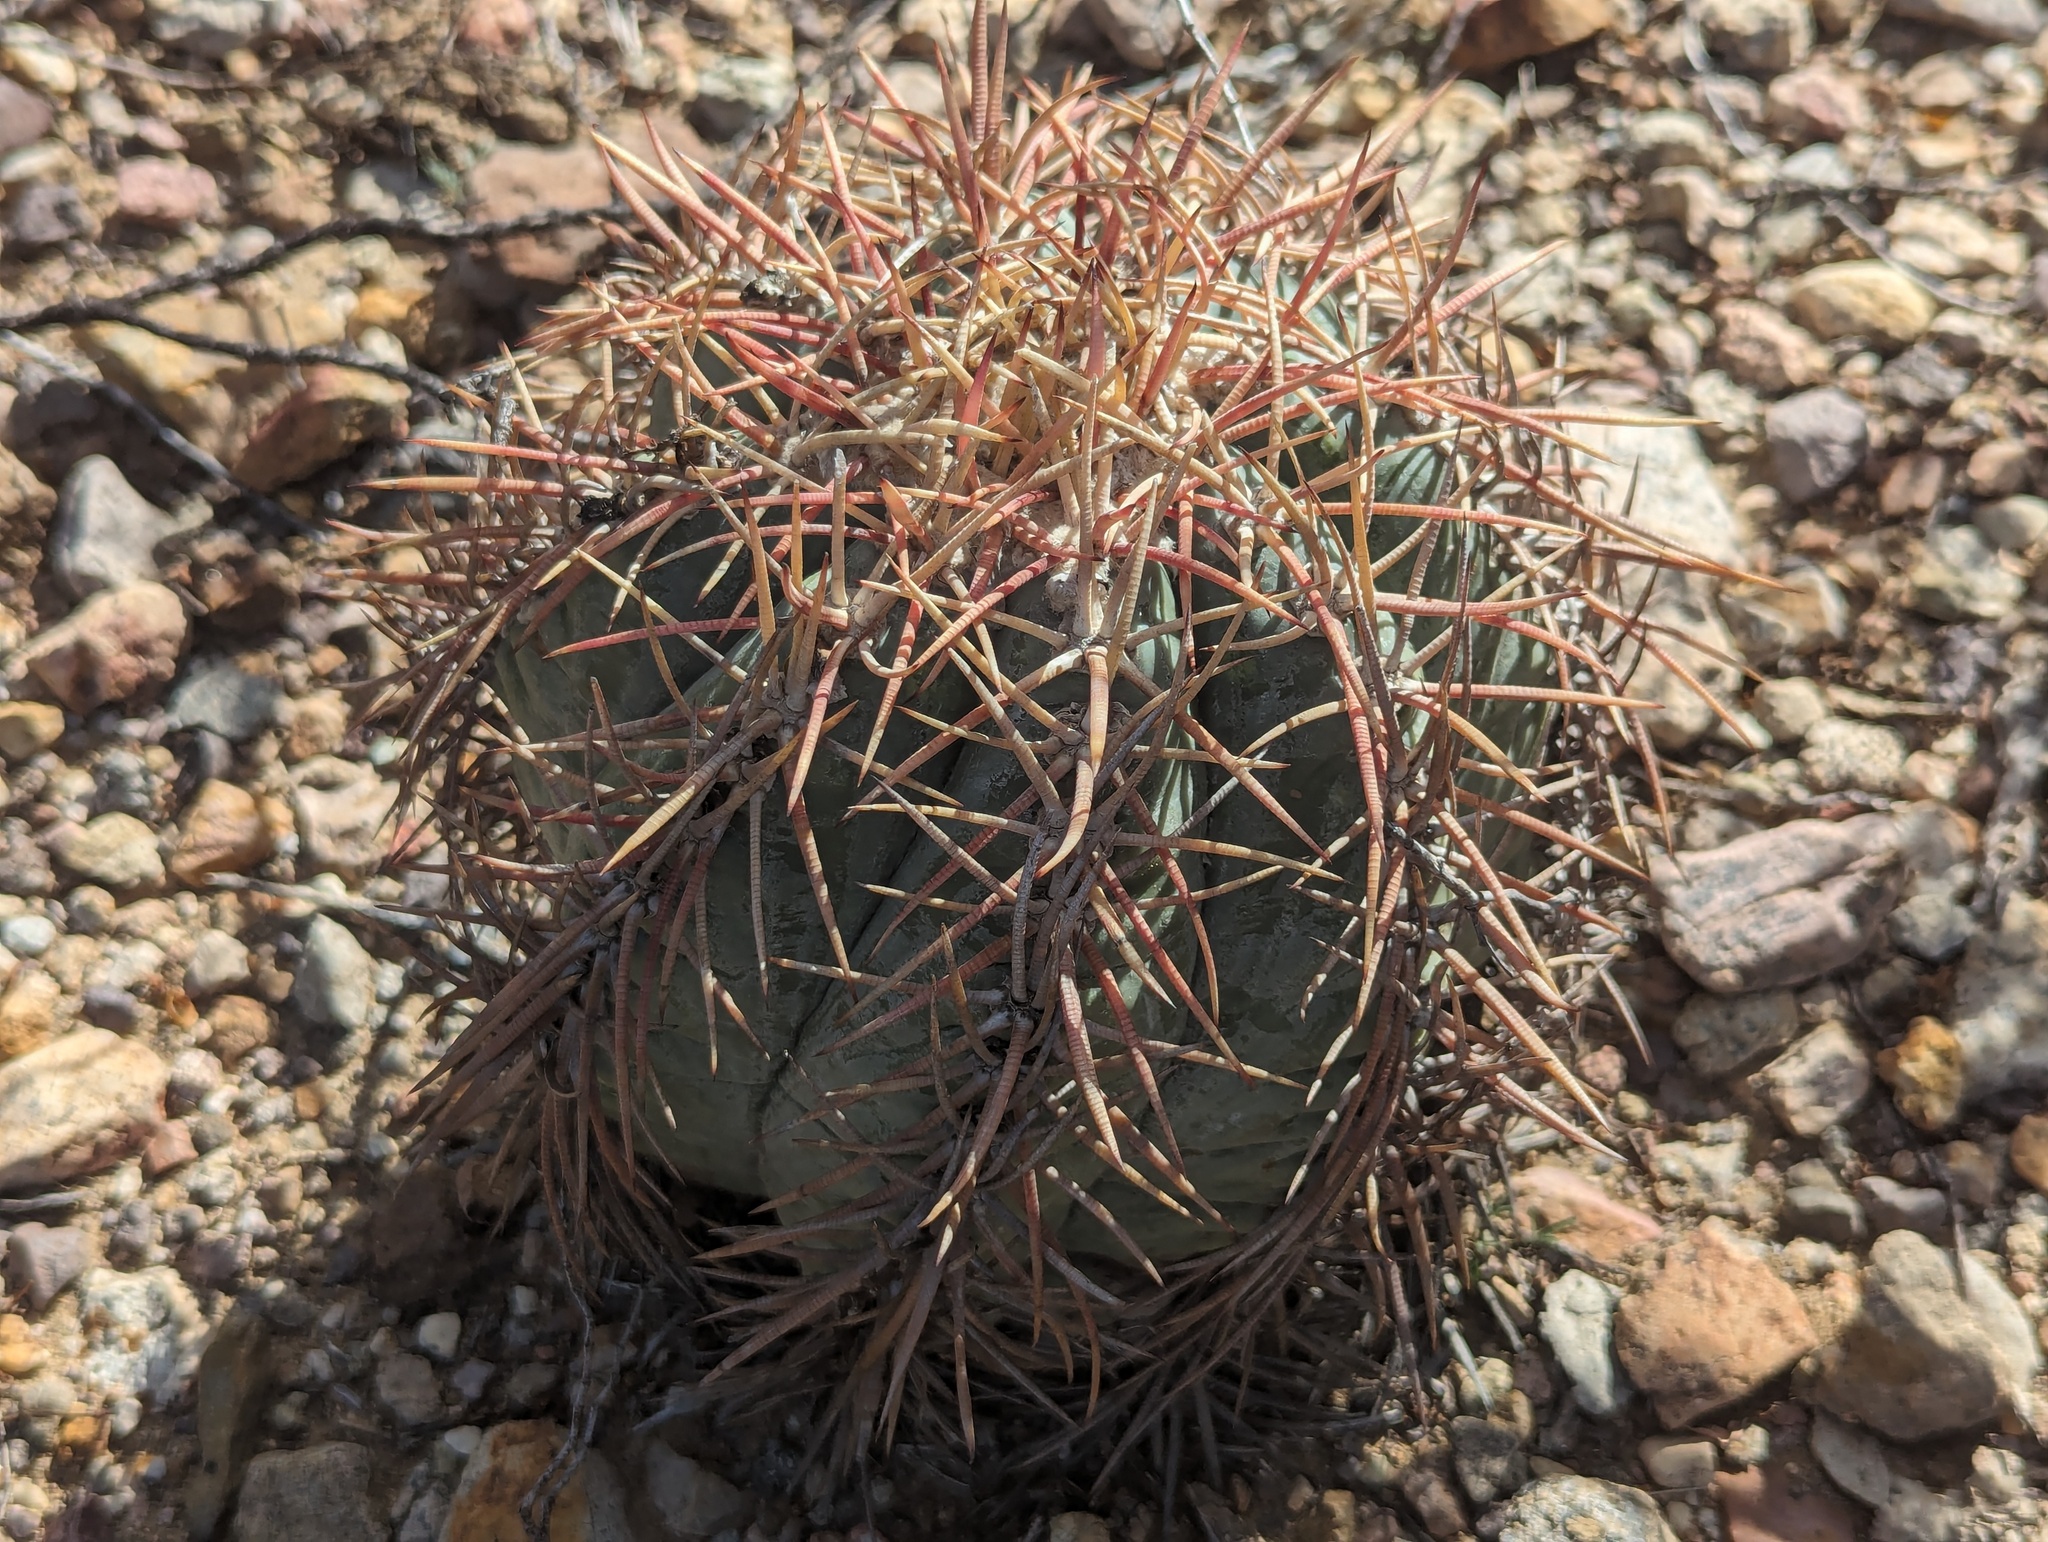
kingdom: Plantae
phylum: Tracheophyta
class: Magnoliopsida
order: Caryophyllales
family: Cactaceae
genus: Echinocactus
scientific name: Echinocactus horizonthalonius
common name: Devilshead
